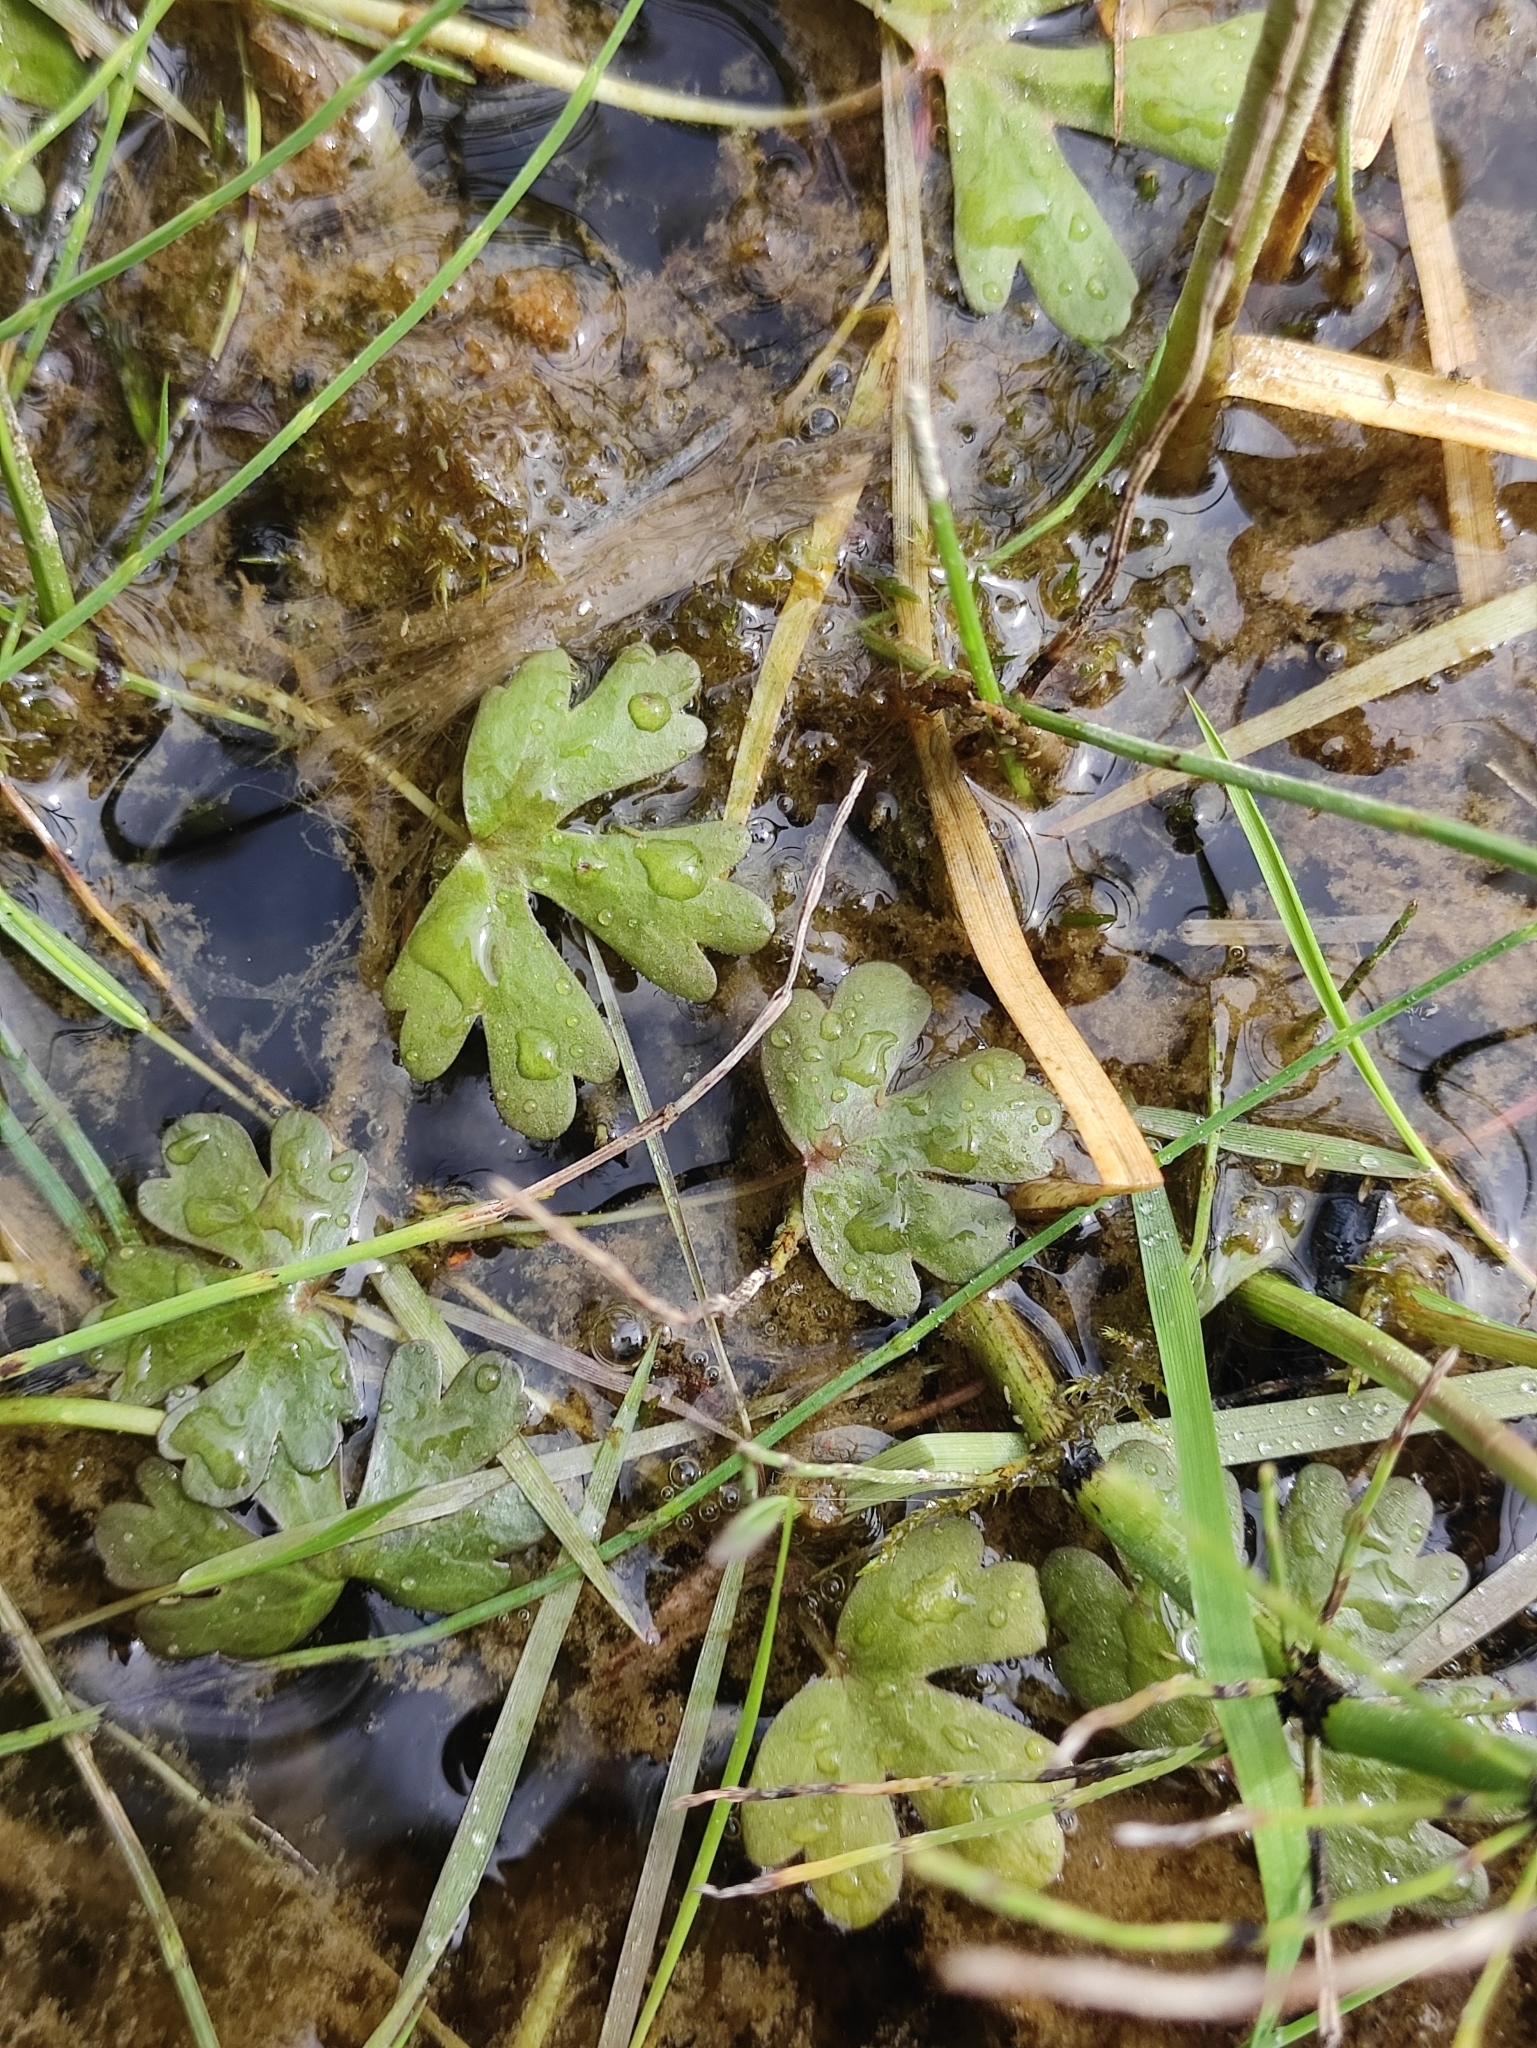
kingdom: Plantae
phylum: Tracheophyta
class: Magnoliopsida
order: Ranunculales
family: Ranunculaceae
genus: Ranunculus
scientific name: Ranunculus sceleratus
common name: Celery-leaved buttercup
